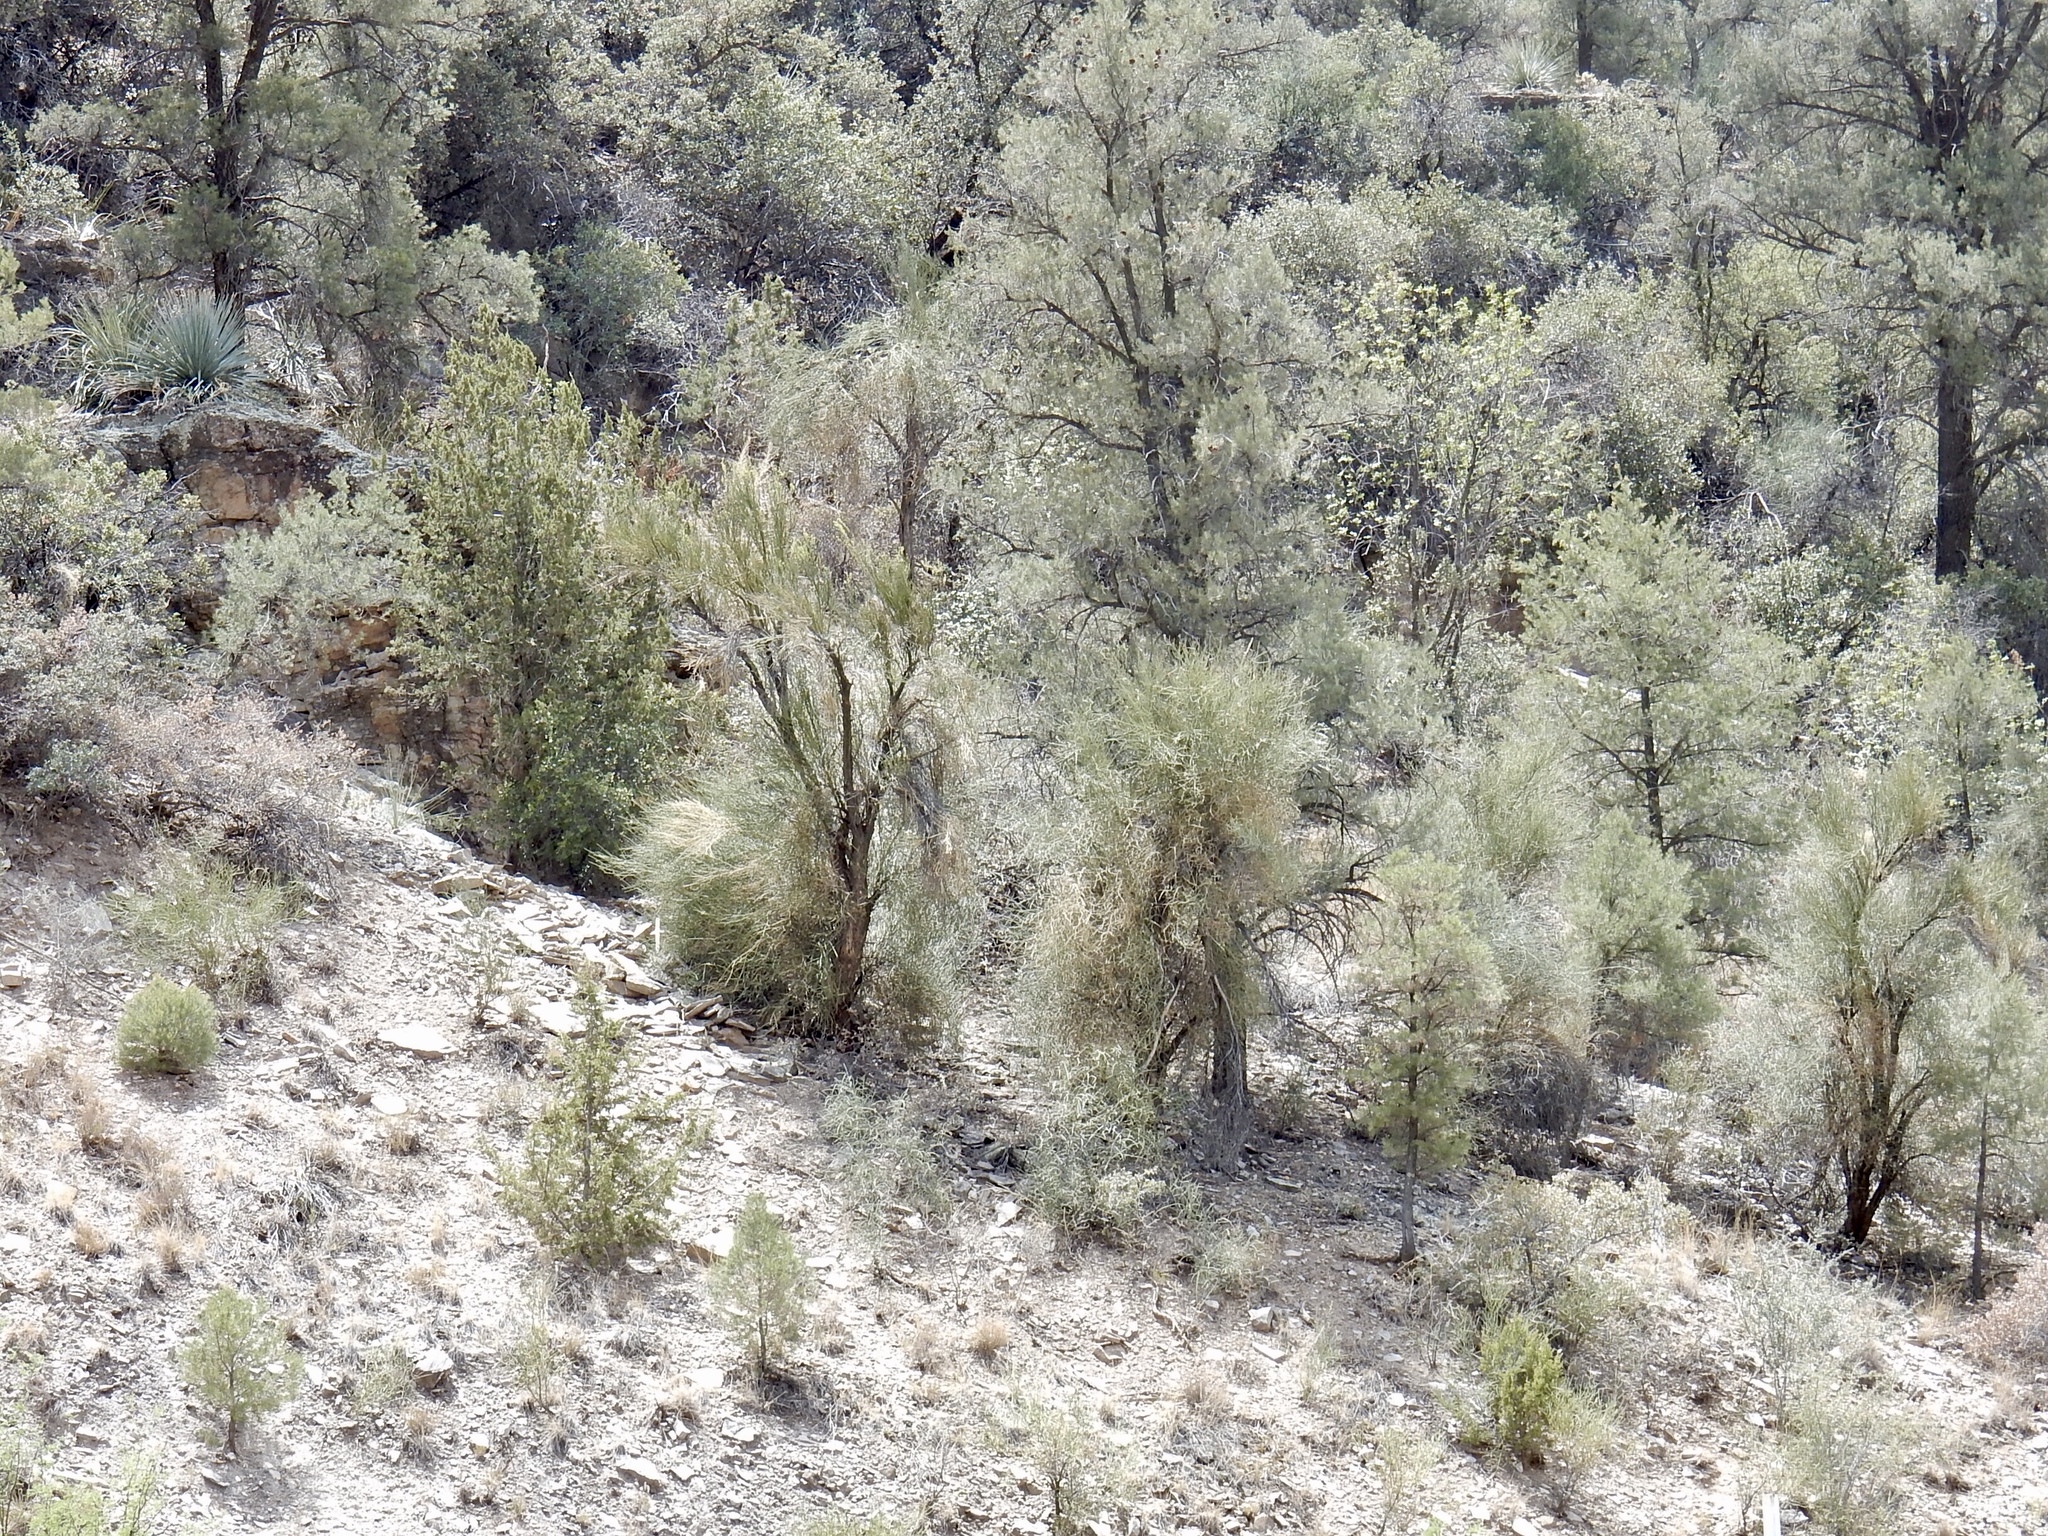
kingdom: Plantae
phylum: Tracheophyta
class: Magnoliopsida
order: Celastrales
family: Celastraceae
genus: Canotia
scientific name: Canotia holacantha
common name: Crucifixion thorns
